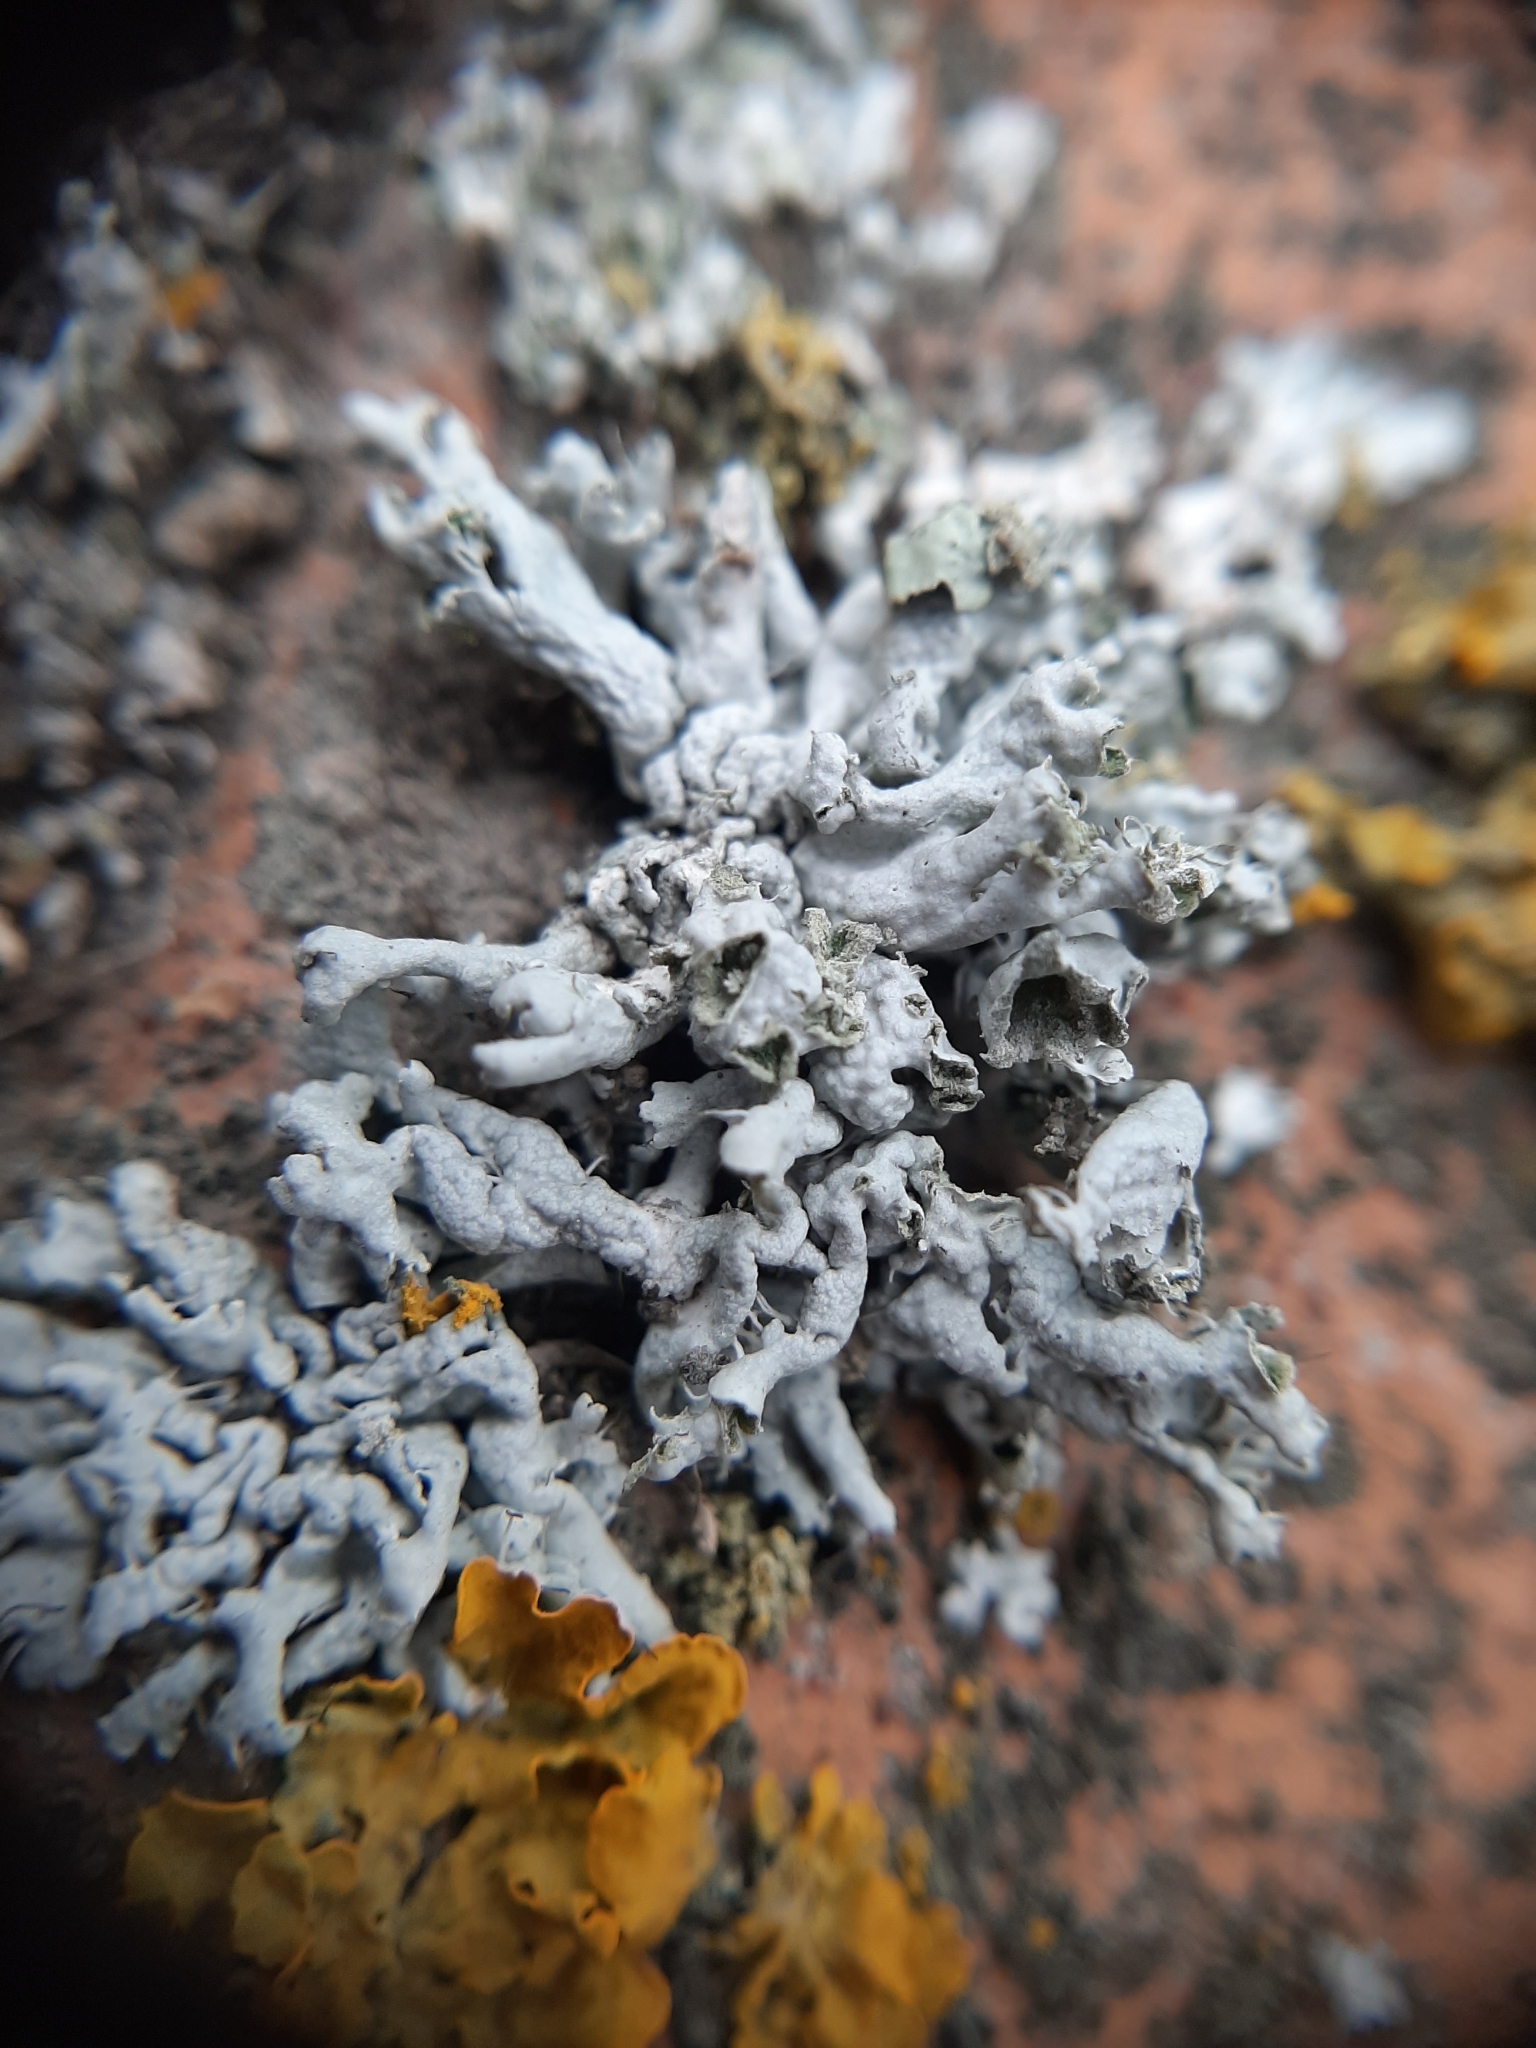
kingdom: Fungi
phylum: Ascomycota
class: Lecanoromycetes
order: Caliciales
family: Physciaceae
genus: Physcia
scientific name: Physcia adscendens
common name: Hooded rosette lichen
